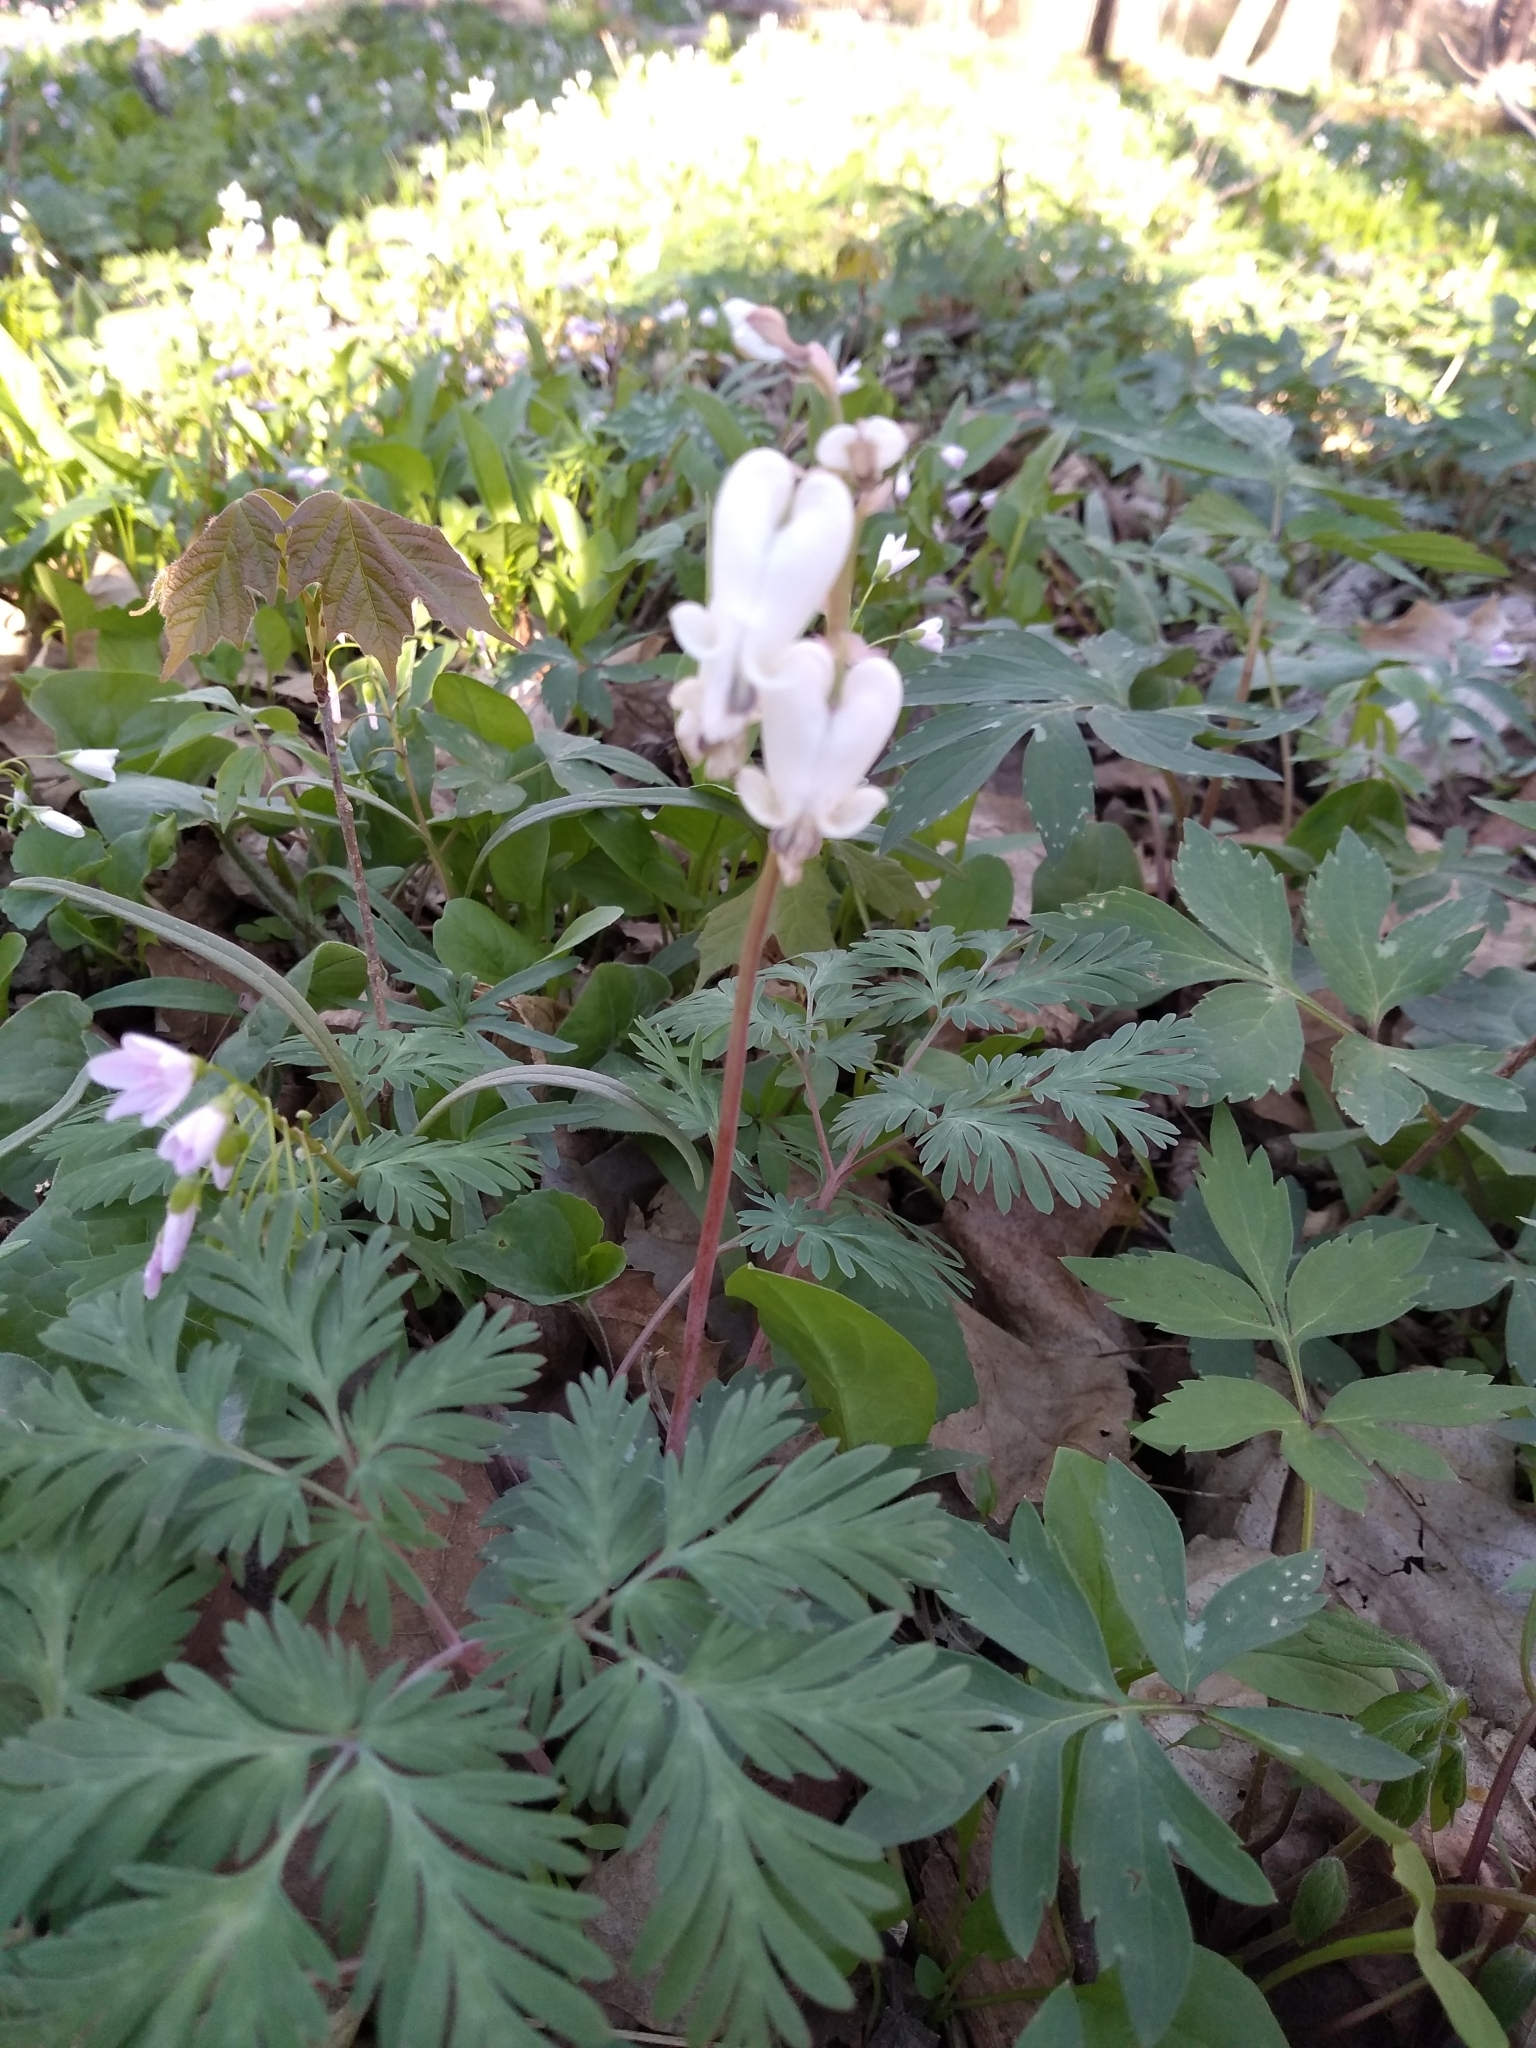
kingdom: Plantae
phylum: Tracheophyta
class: Magnoliopsida
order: Ranunculales
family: Papaveraceae
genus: Dicentra
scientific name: Dicentra canadensis
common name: Squirrel-corn
